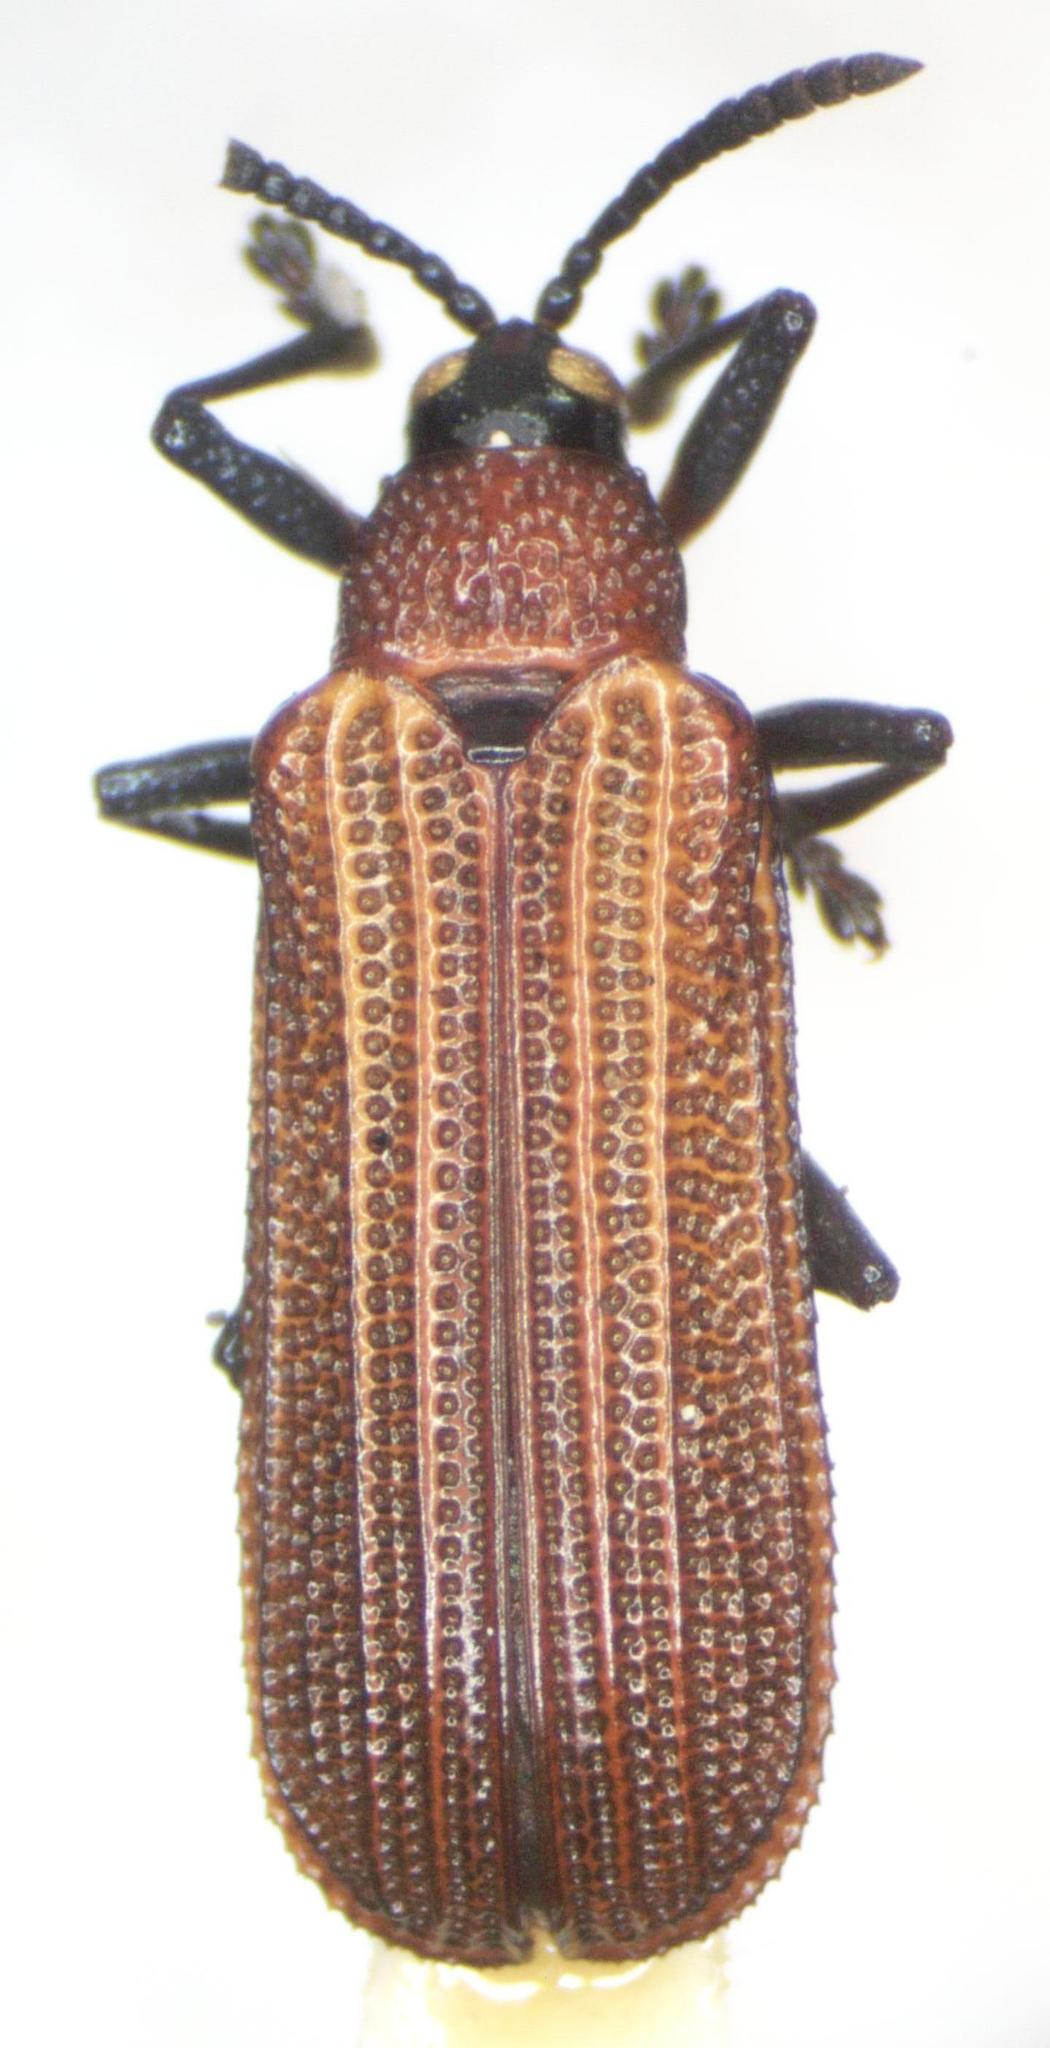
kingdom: Animalia
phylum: Arthropoda
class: Insecta
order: Coleoptera
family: Chrysomelidae
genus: Chalepus
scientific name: Chalepus generosus
